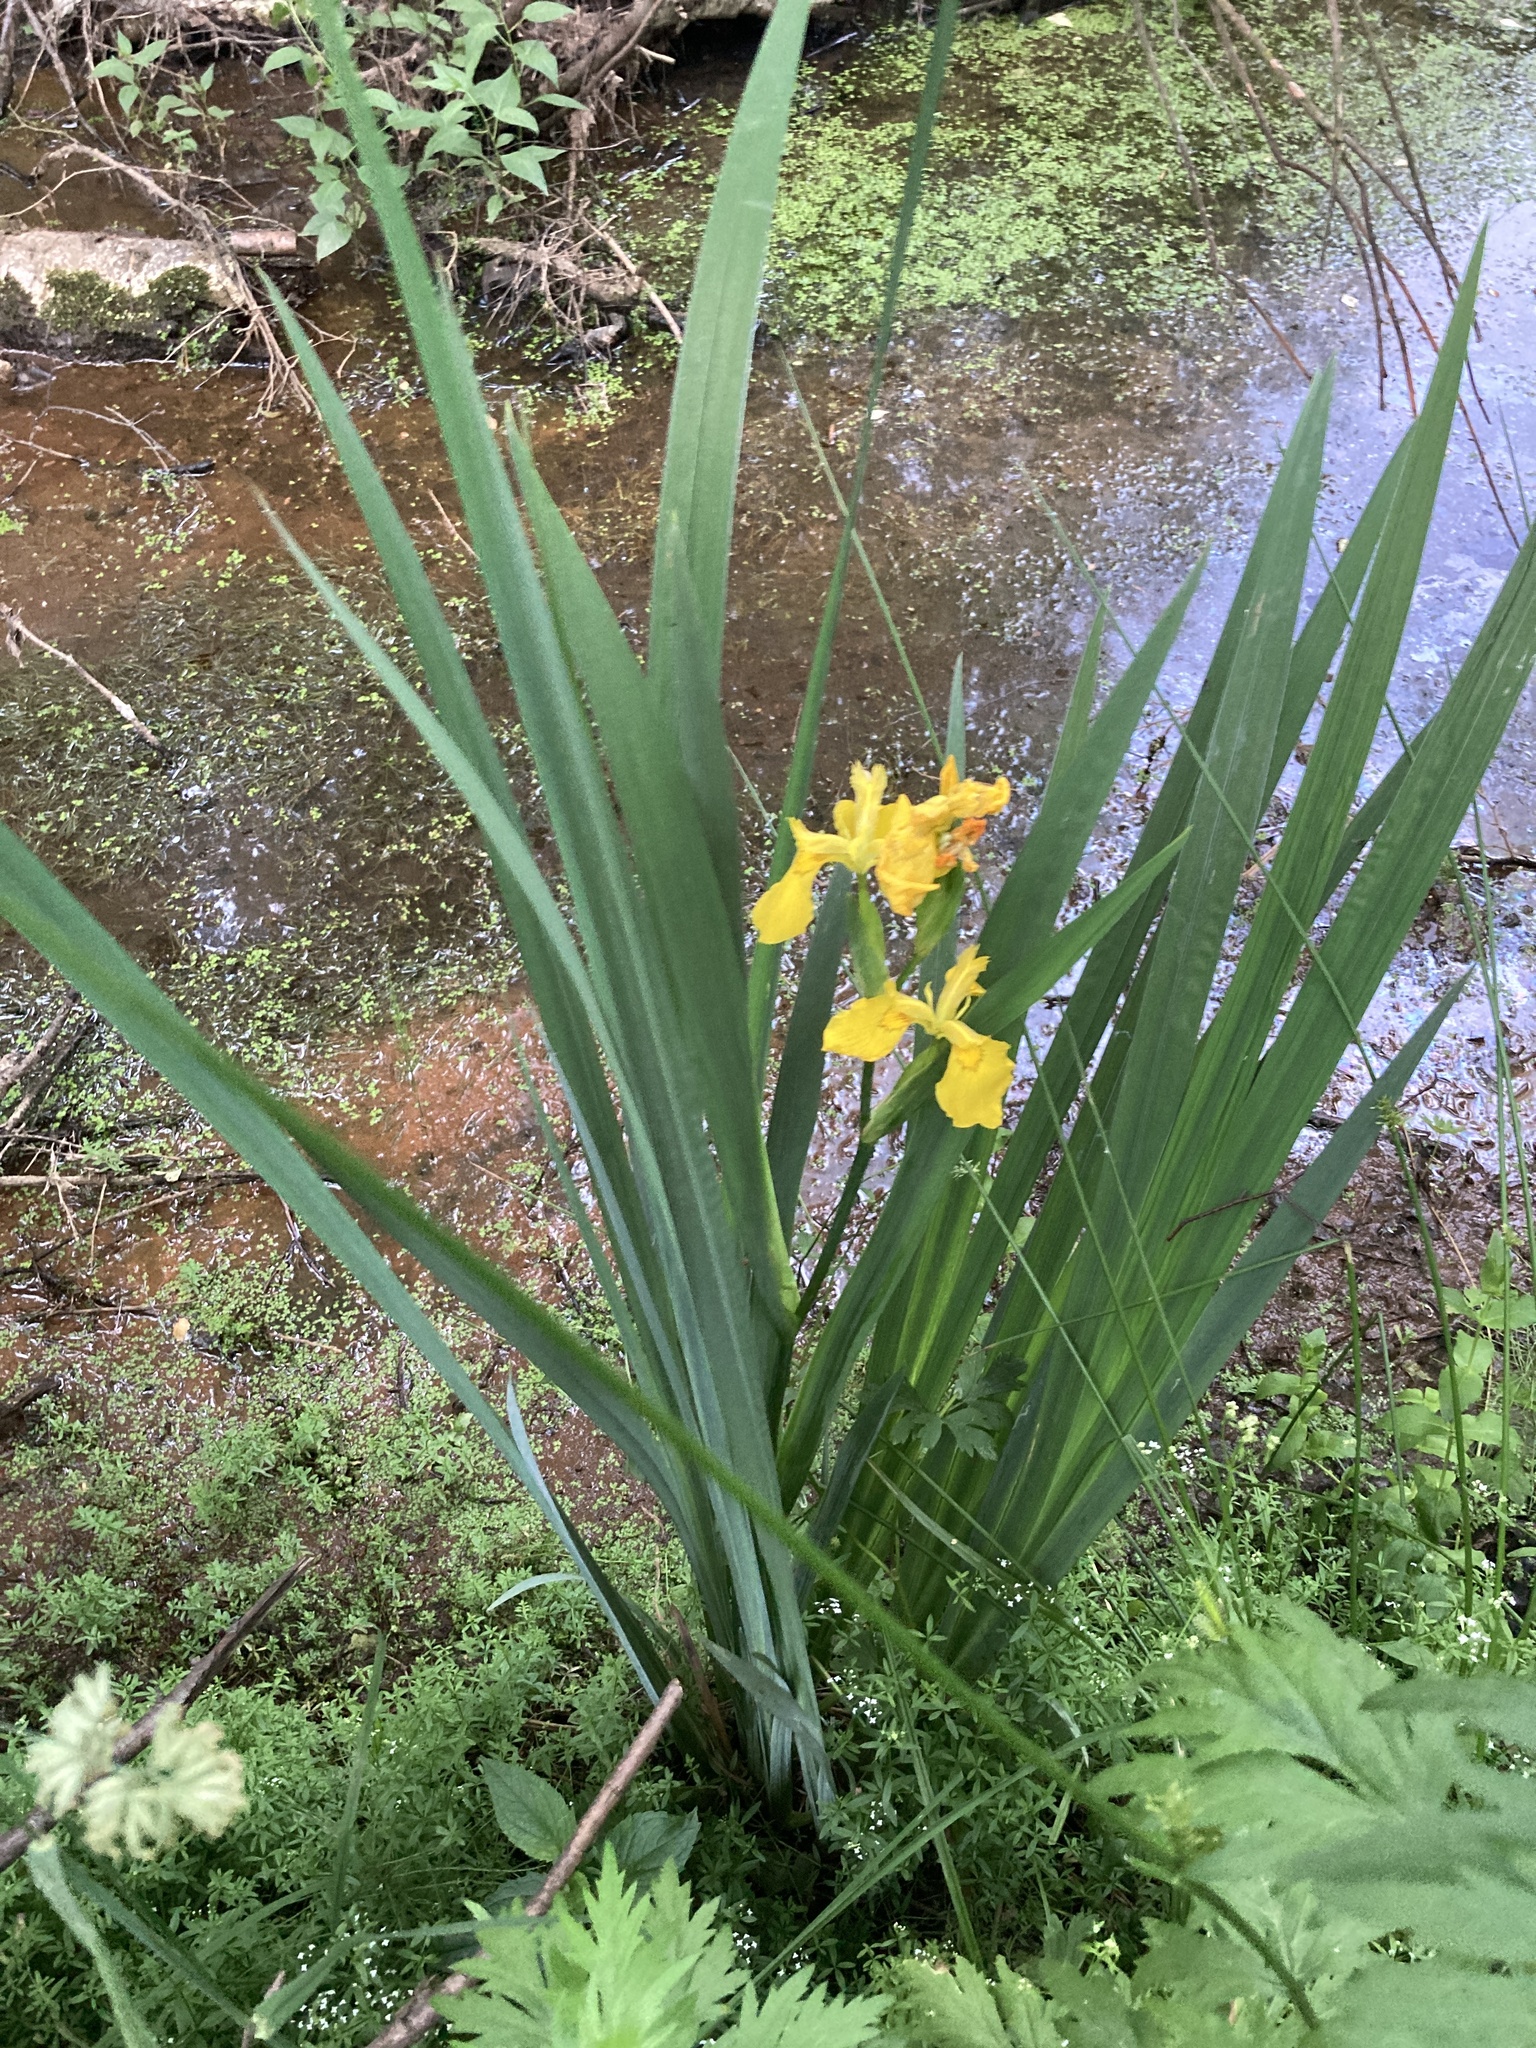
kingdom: Plantae
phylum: Tracheophyta
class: Liliopsida
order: Asparagales
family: Iridaceae
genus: Iris
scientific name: Iris pseudacorus
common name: Yellow flag
